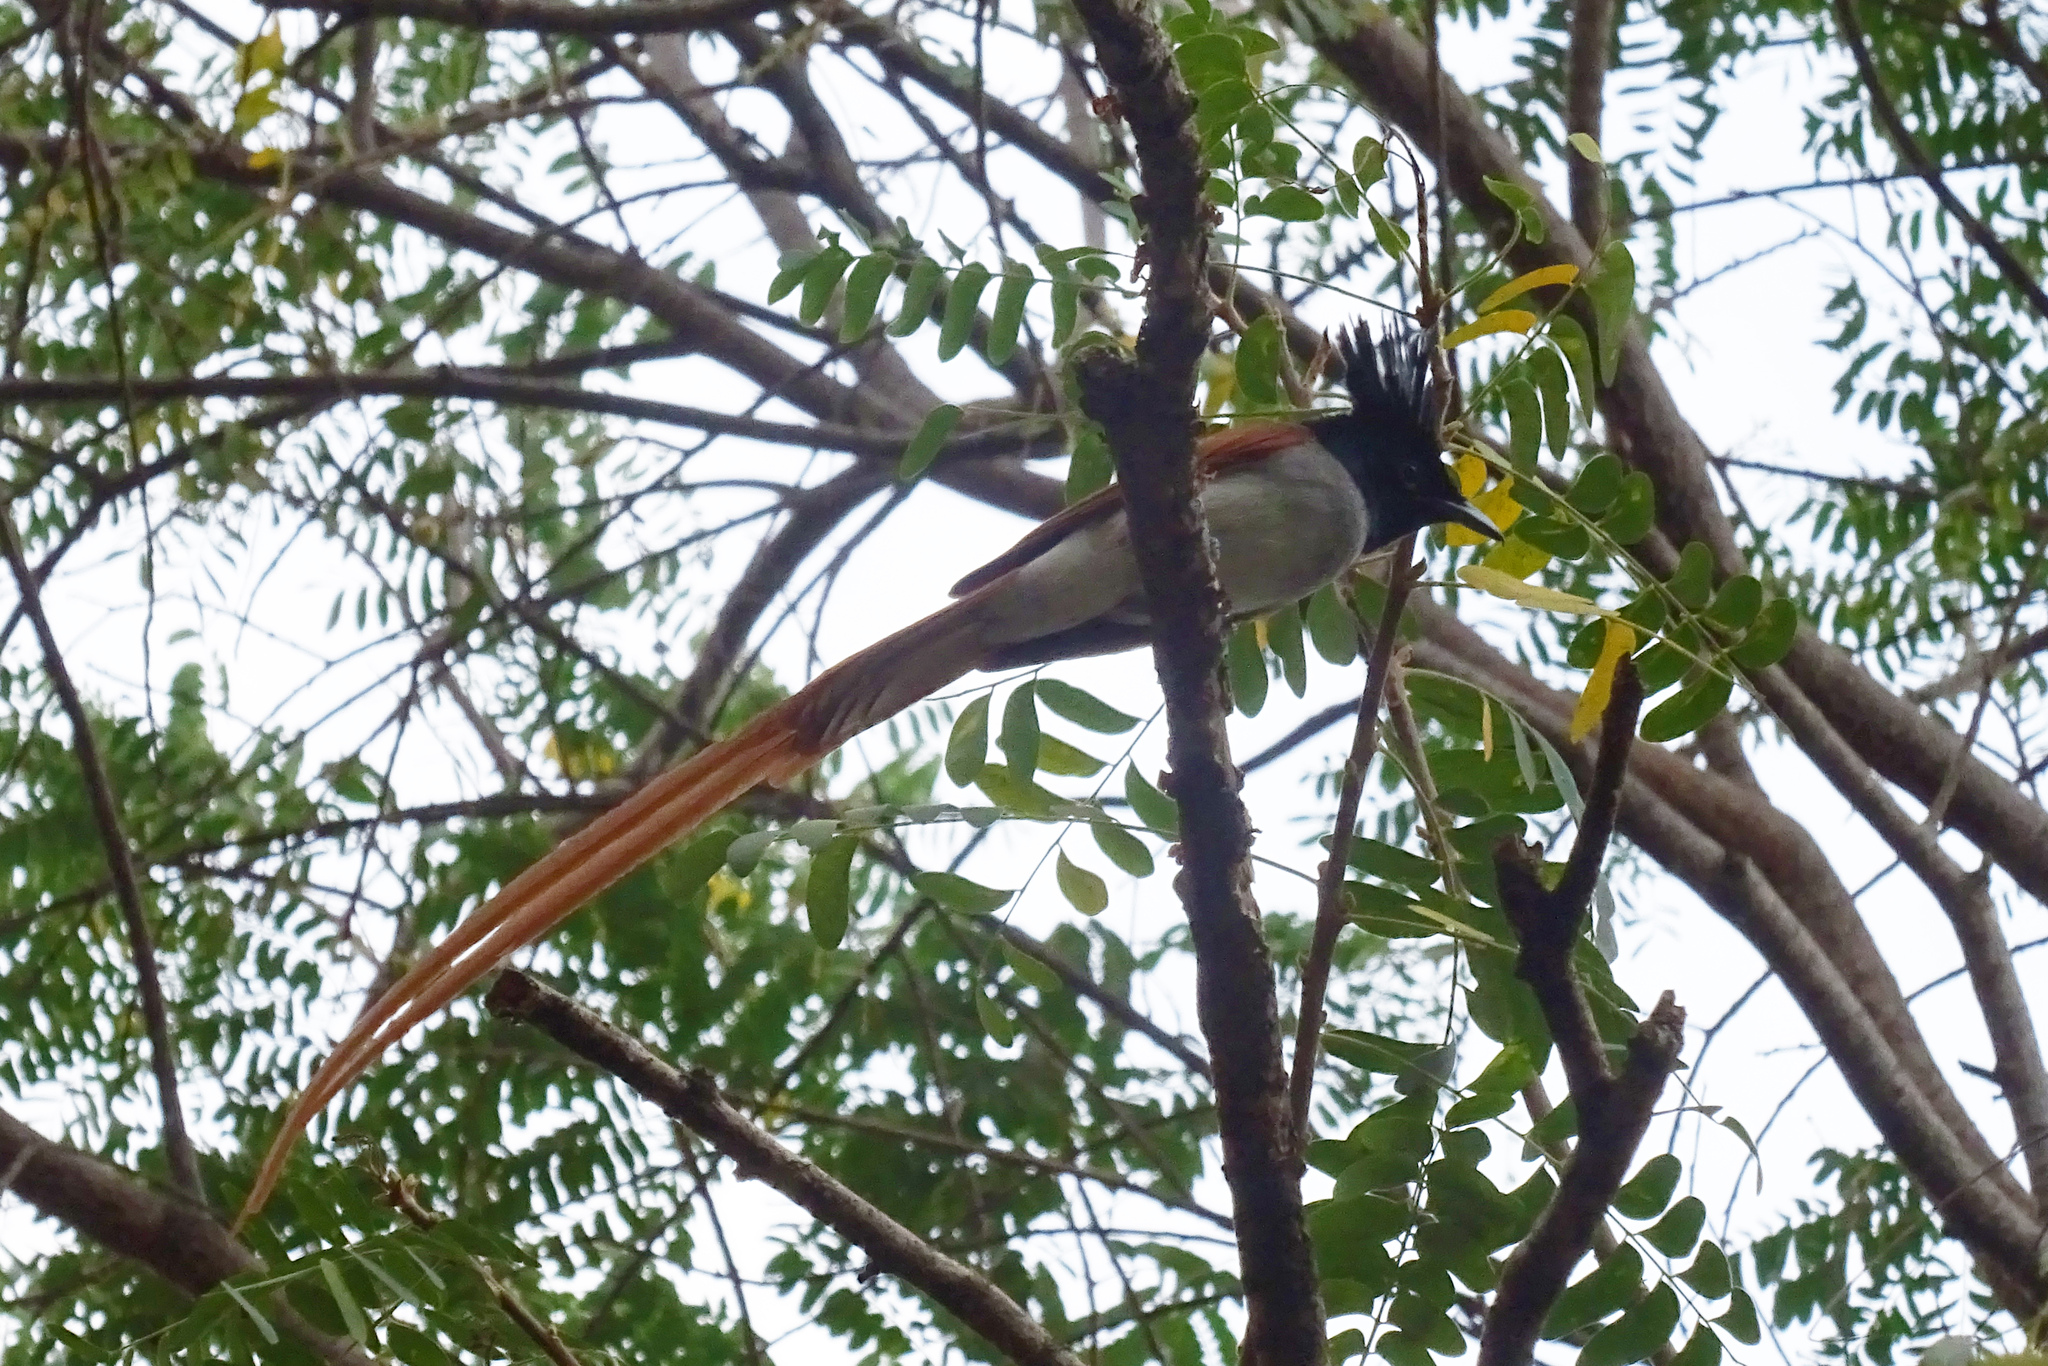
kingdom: Animalia
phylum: Chordata
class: Aves
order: Passeriformes
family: Monarchidae
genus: Terpsiphone
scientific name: Terpsiphone paradisi
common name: Indian paradise flycatcher
